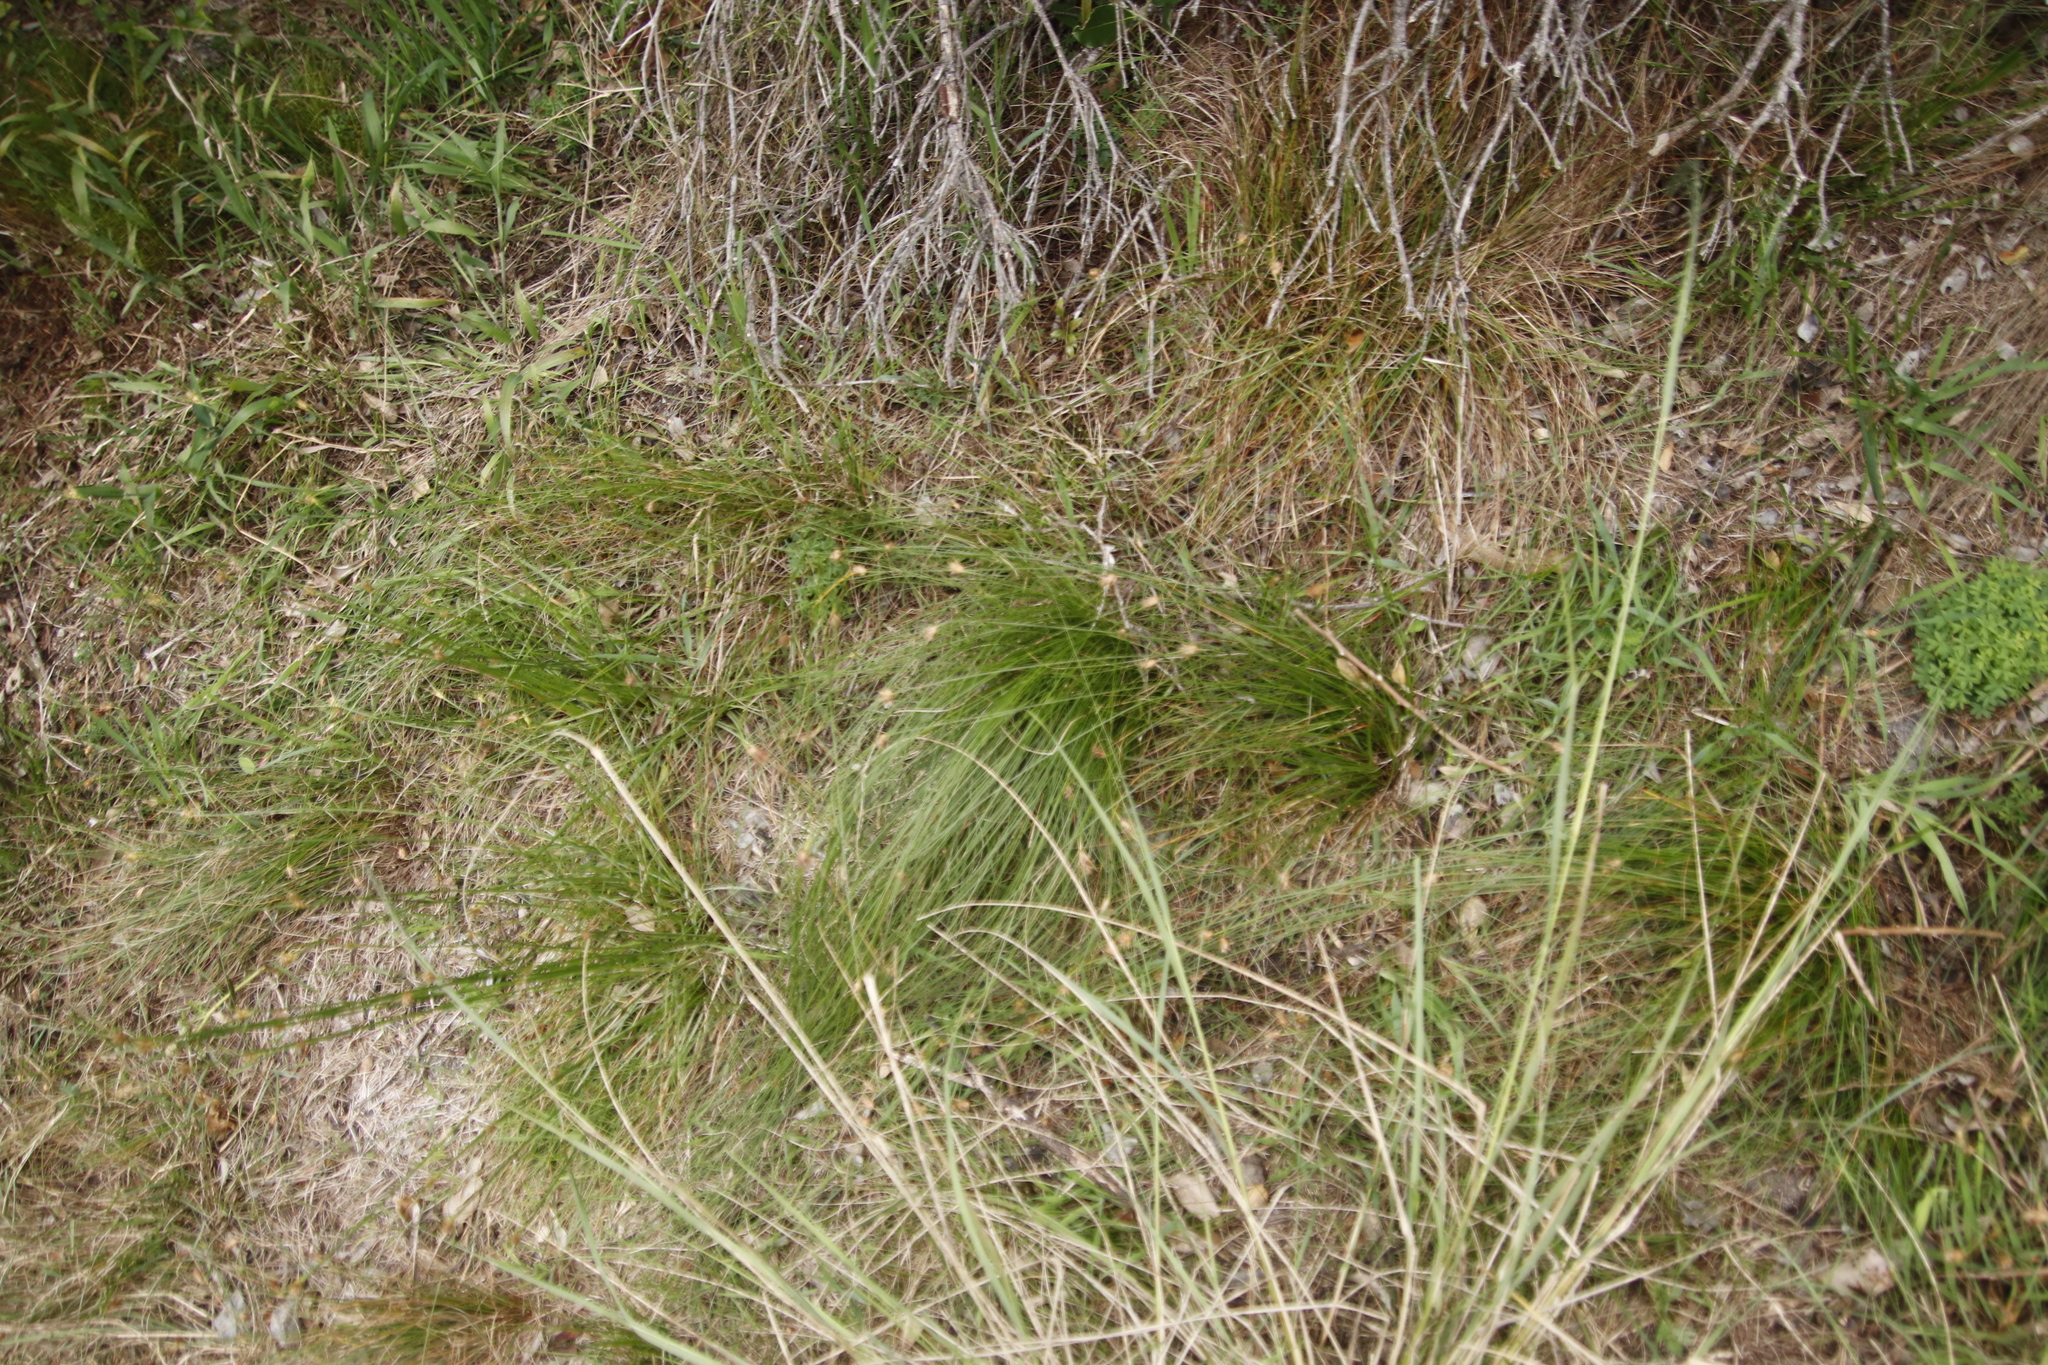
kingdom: Plantae
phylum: Tracheophyta
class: Liliopsida
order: Poales
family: Cyperaceae
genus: Ficinia
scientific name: Ficinia nigrescens
